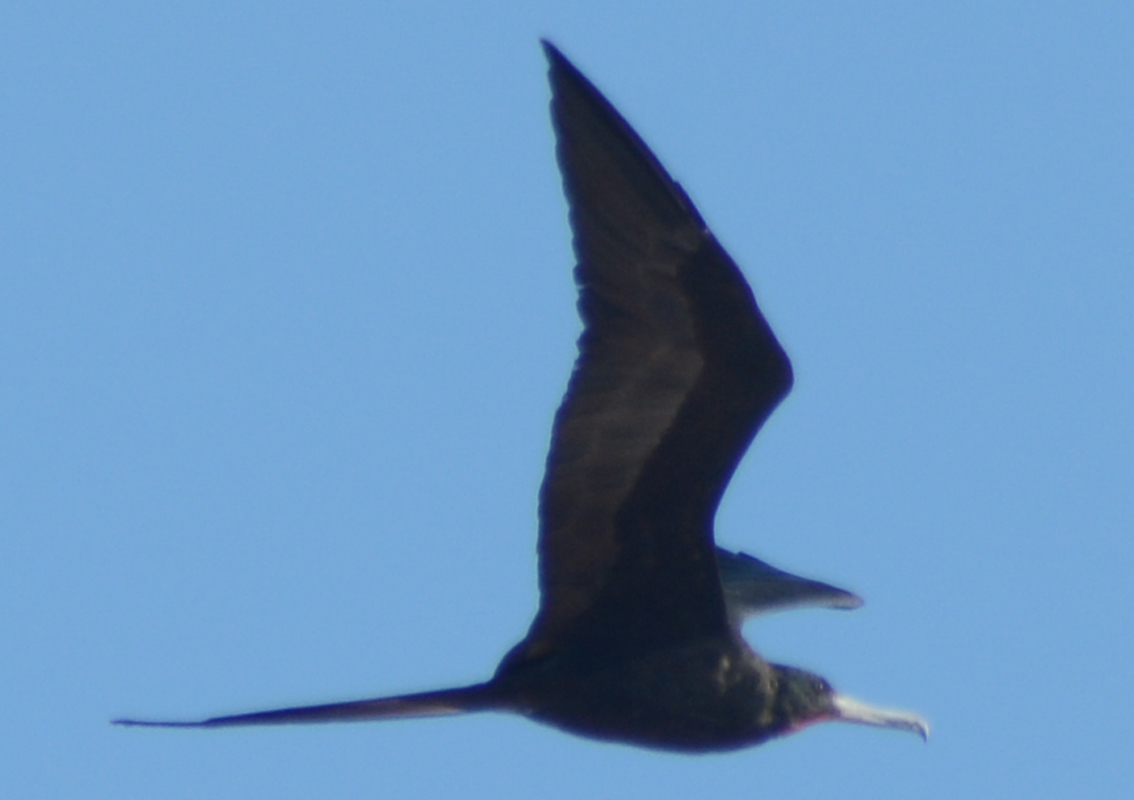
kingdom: Animalia
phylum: Chordata
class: Aves
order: Suliformes
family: Fregatidae
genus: Fregata
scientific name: Fregata magnificens
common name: Magnificent frigatebird
